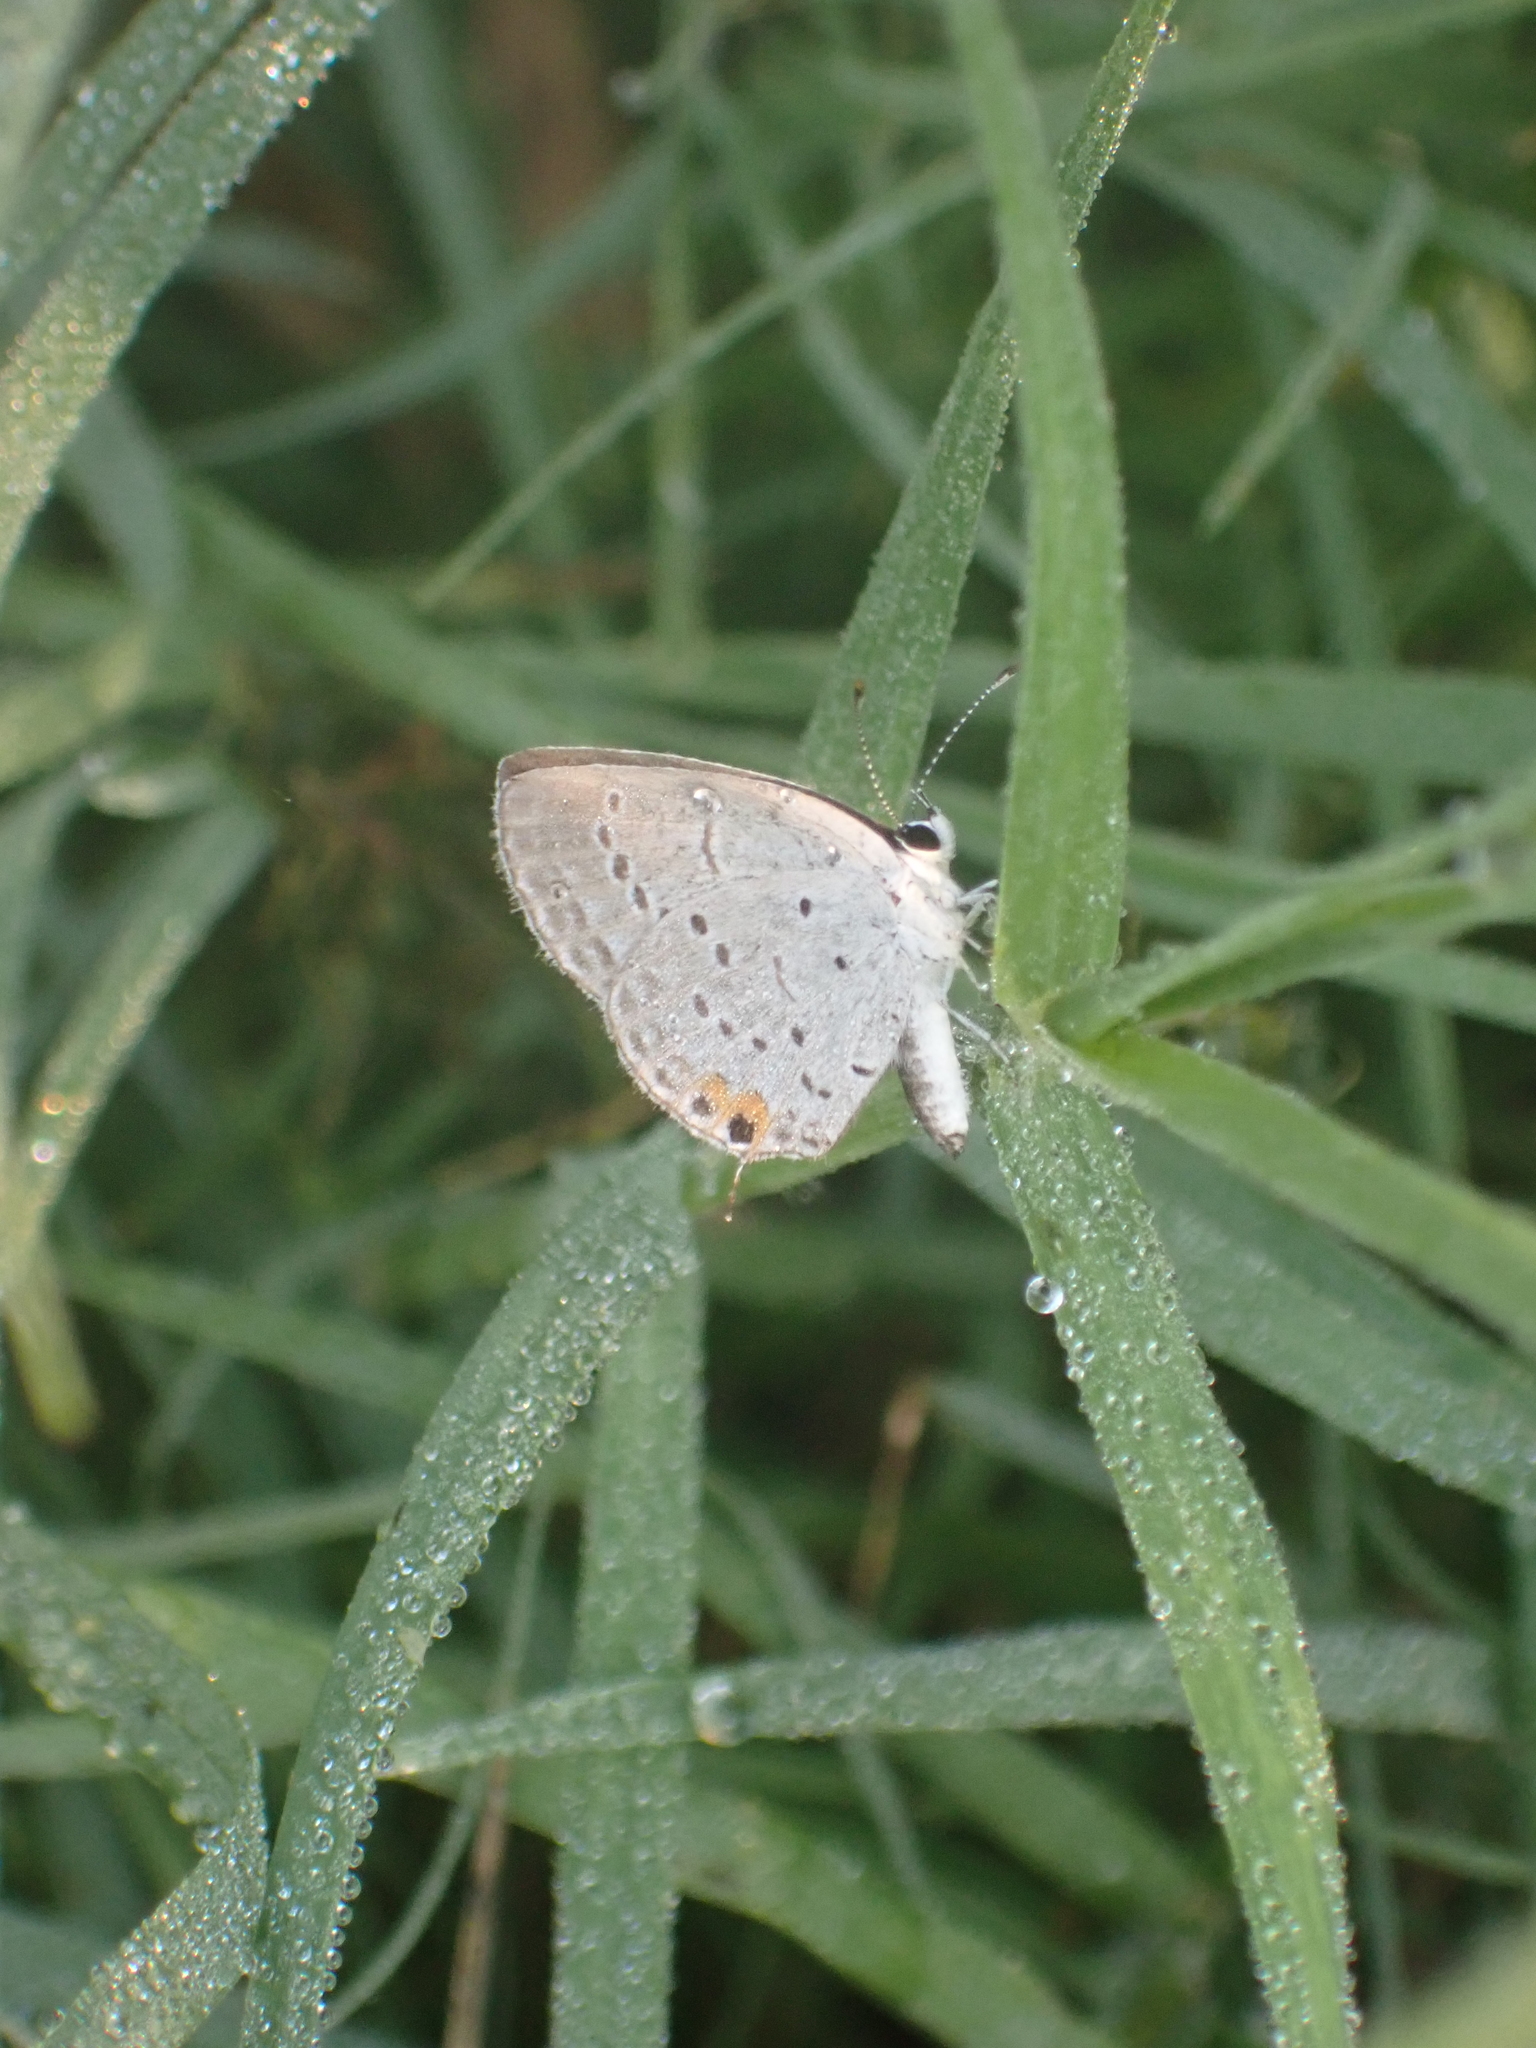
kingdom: Animalia
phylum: Arthropoda
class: Insecta
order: Lepidoptera
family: Lycaenidae
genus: Elkalyce
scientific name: Elkalyce comyntas
